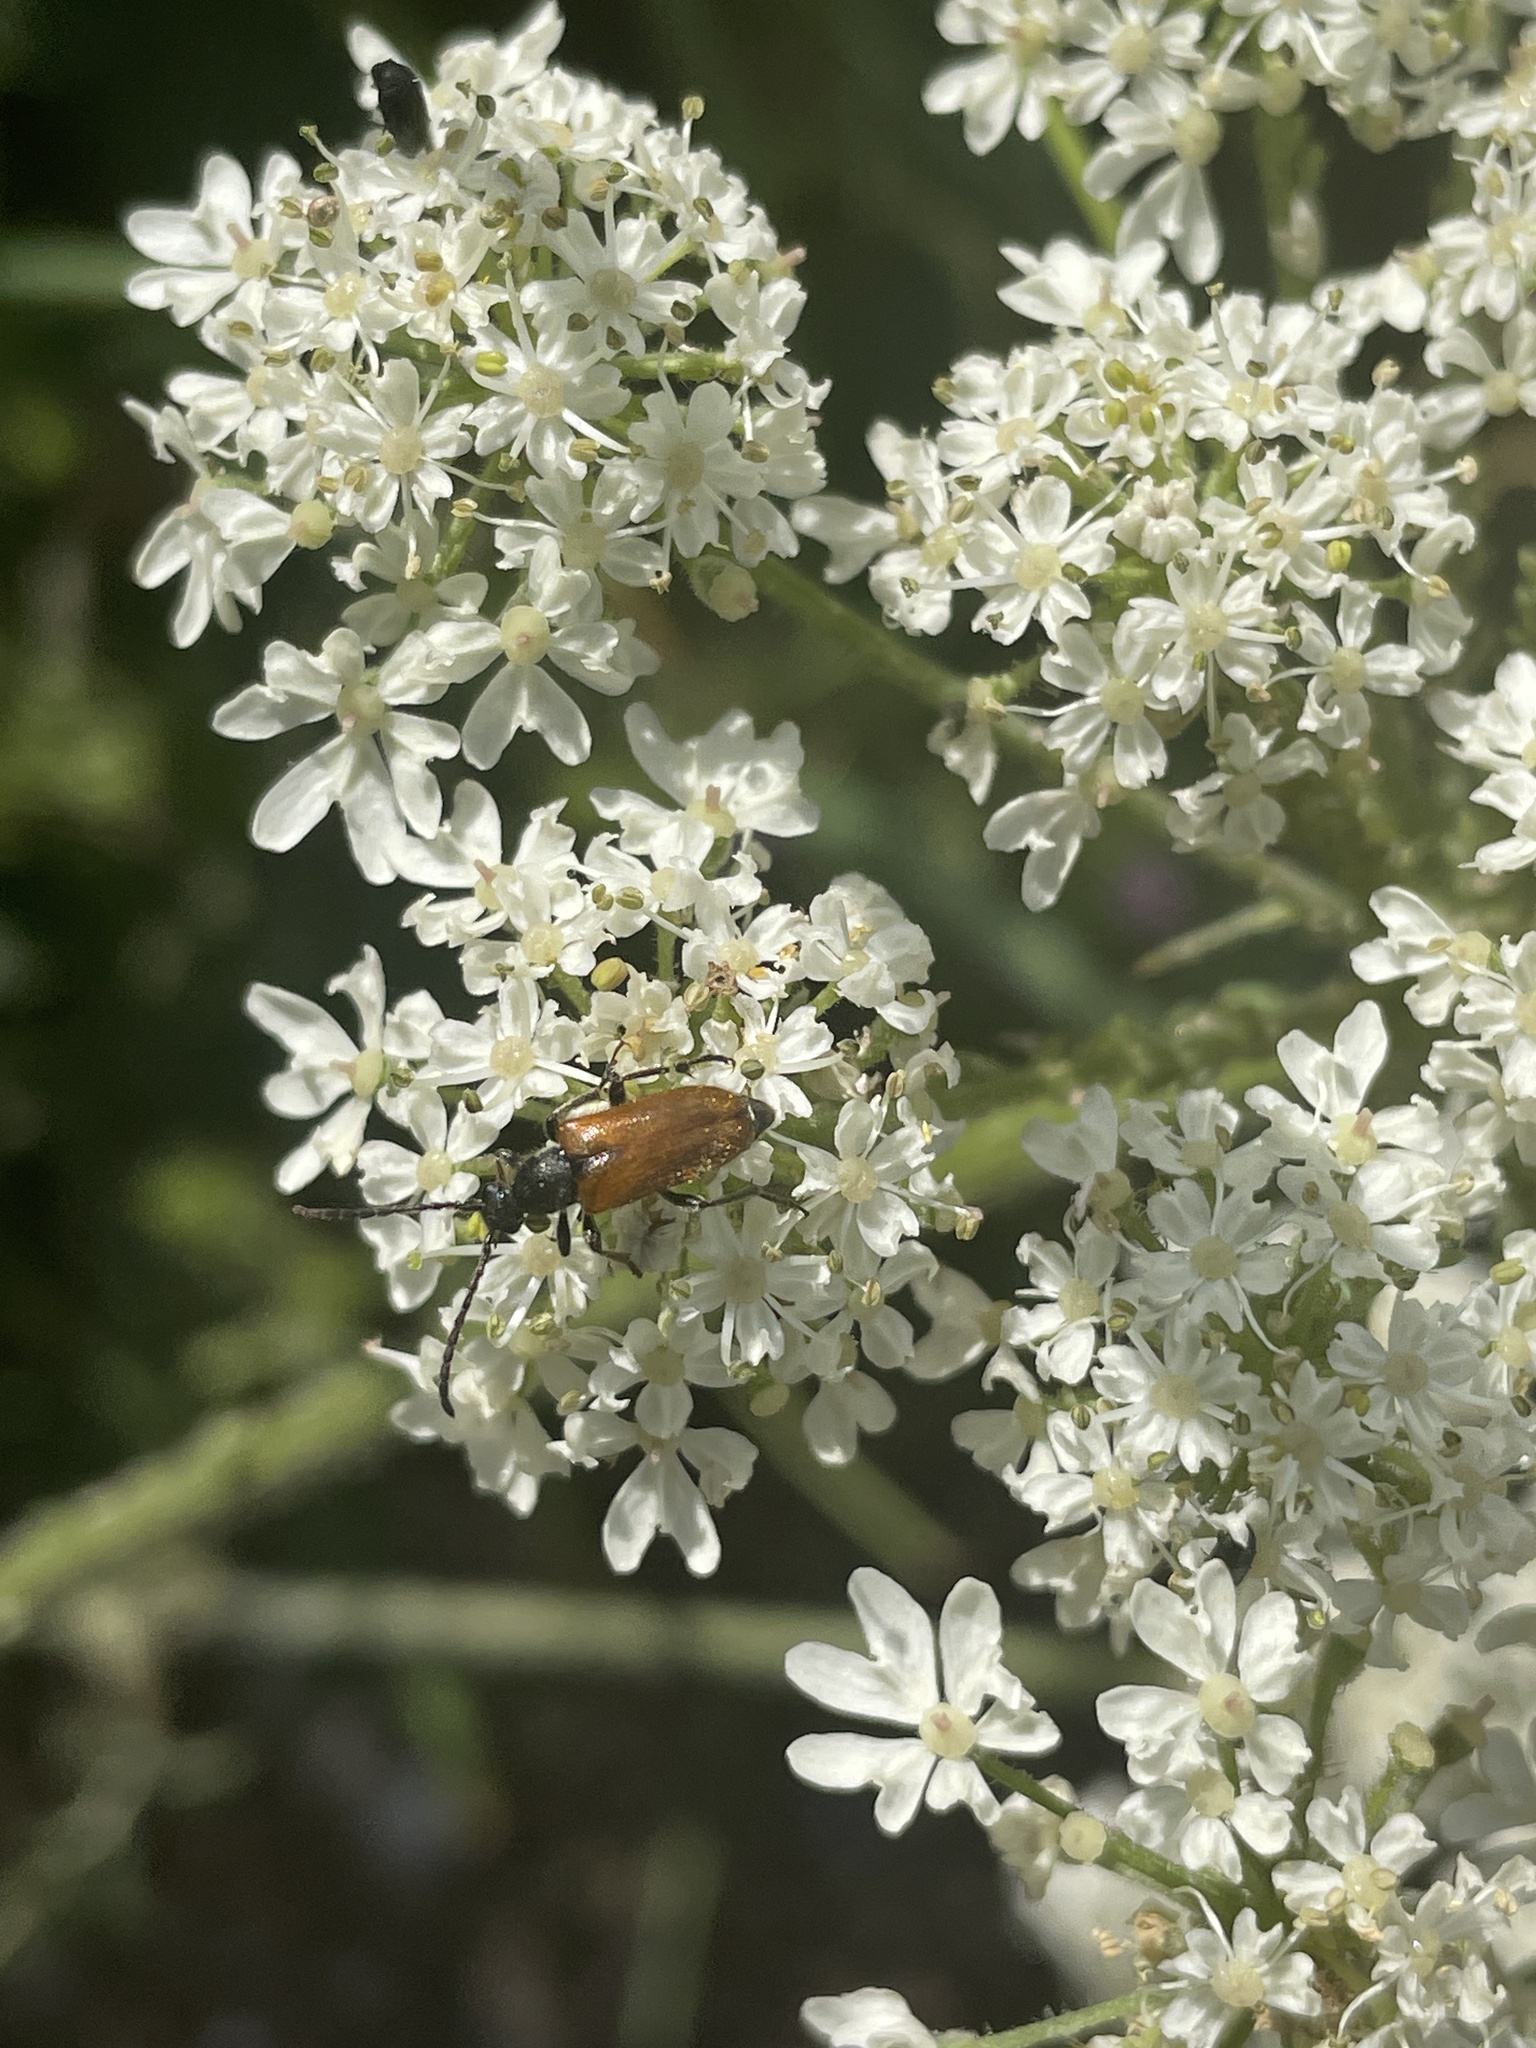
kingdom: Animalia
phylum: Arthropoda
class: Insecta
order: Coleoptera
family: Cerambycidae
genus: Pseudovadonia
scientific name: Pseudovadonia livida
